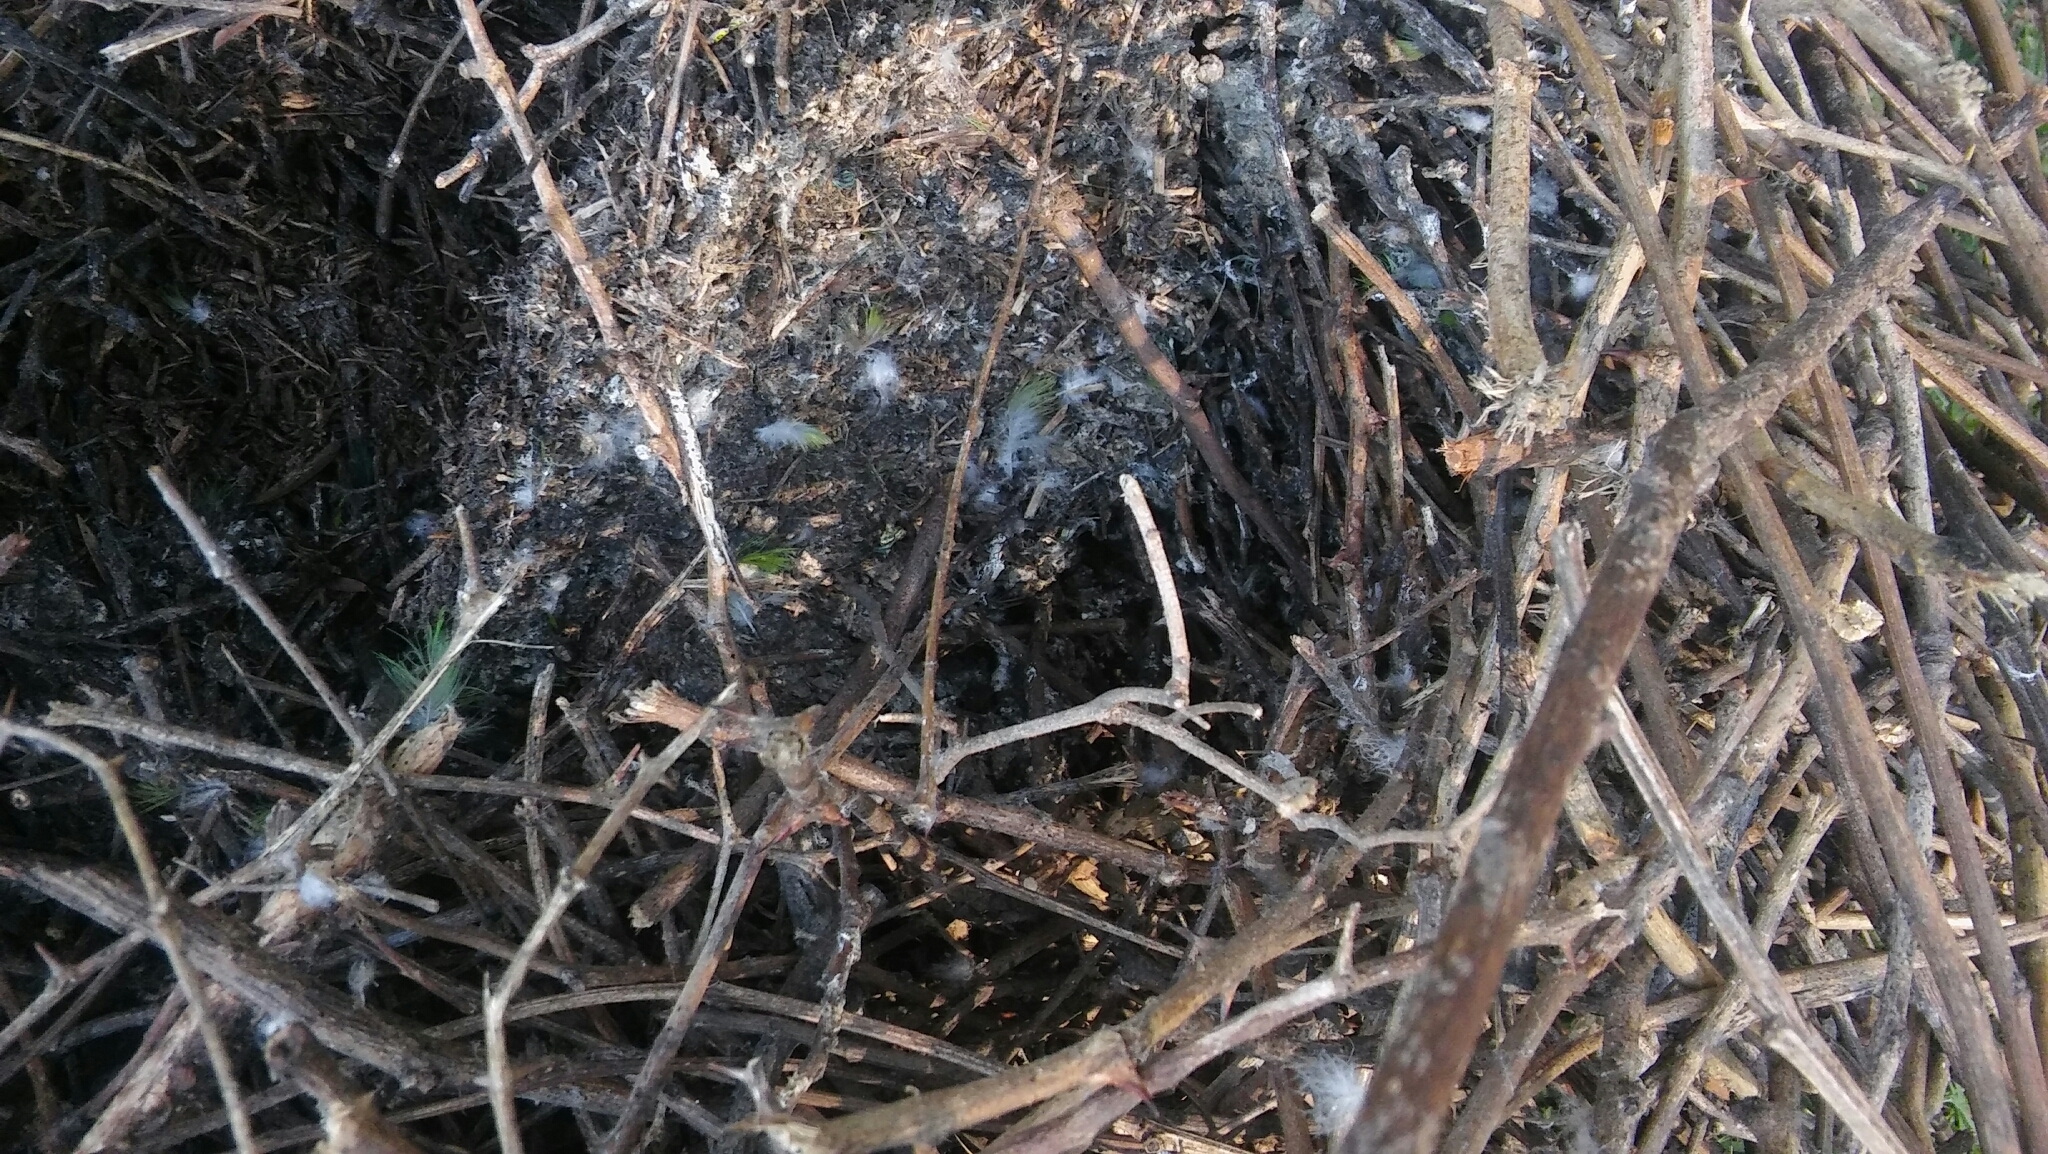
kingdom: Animalia
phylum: Chordata
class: Aves
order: Psittaciformes
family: Psittacidae
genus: Myiopsitta
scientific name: Myiopsitta monachus
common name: Monk parakeet
